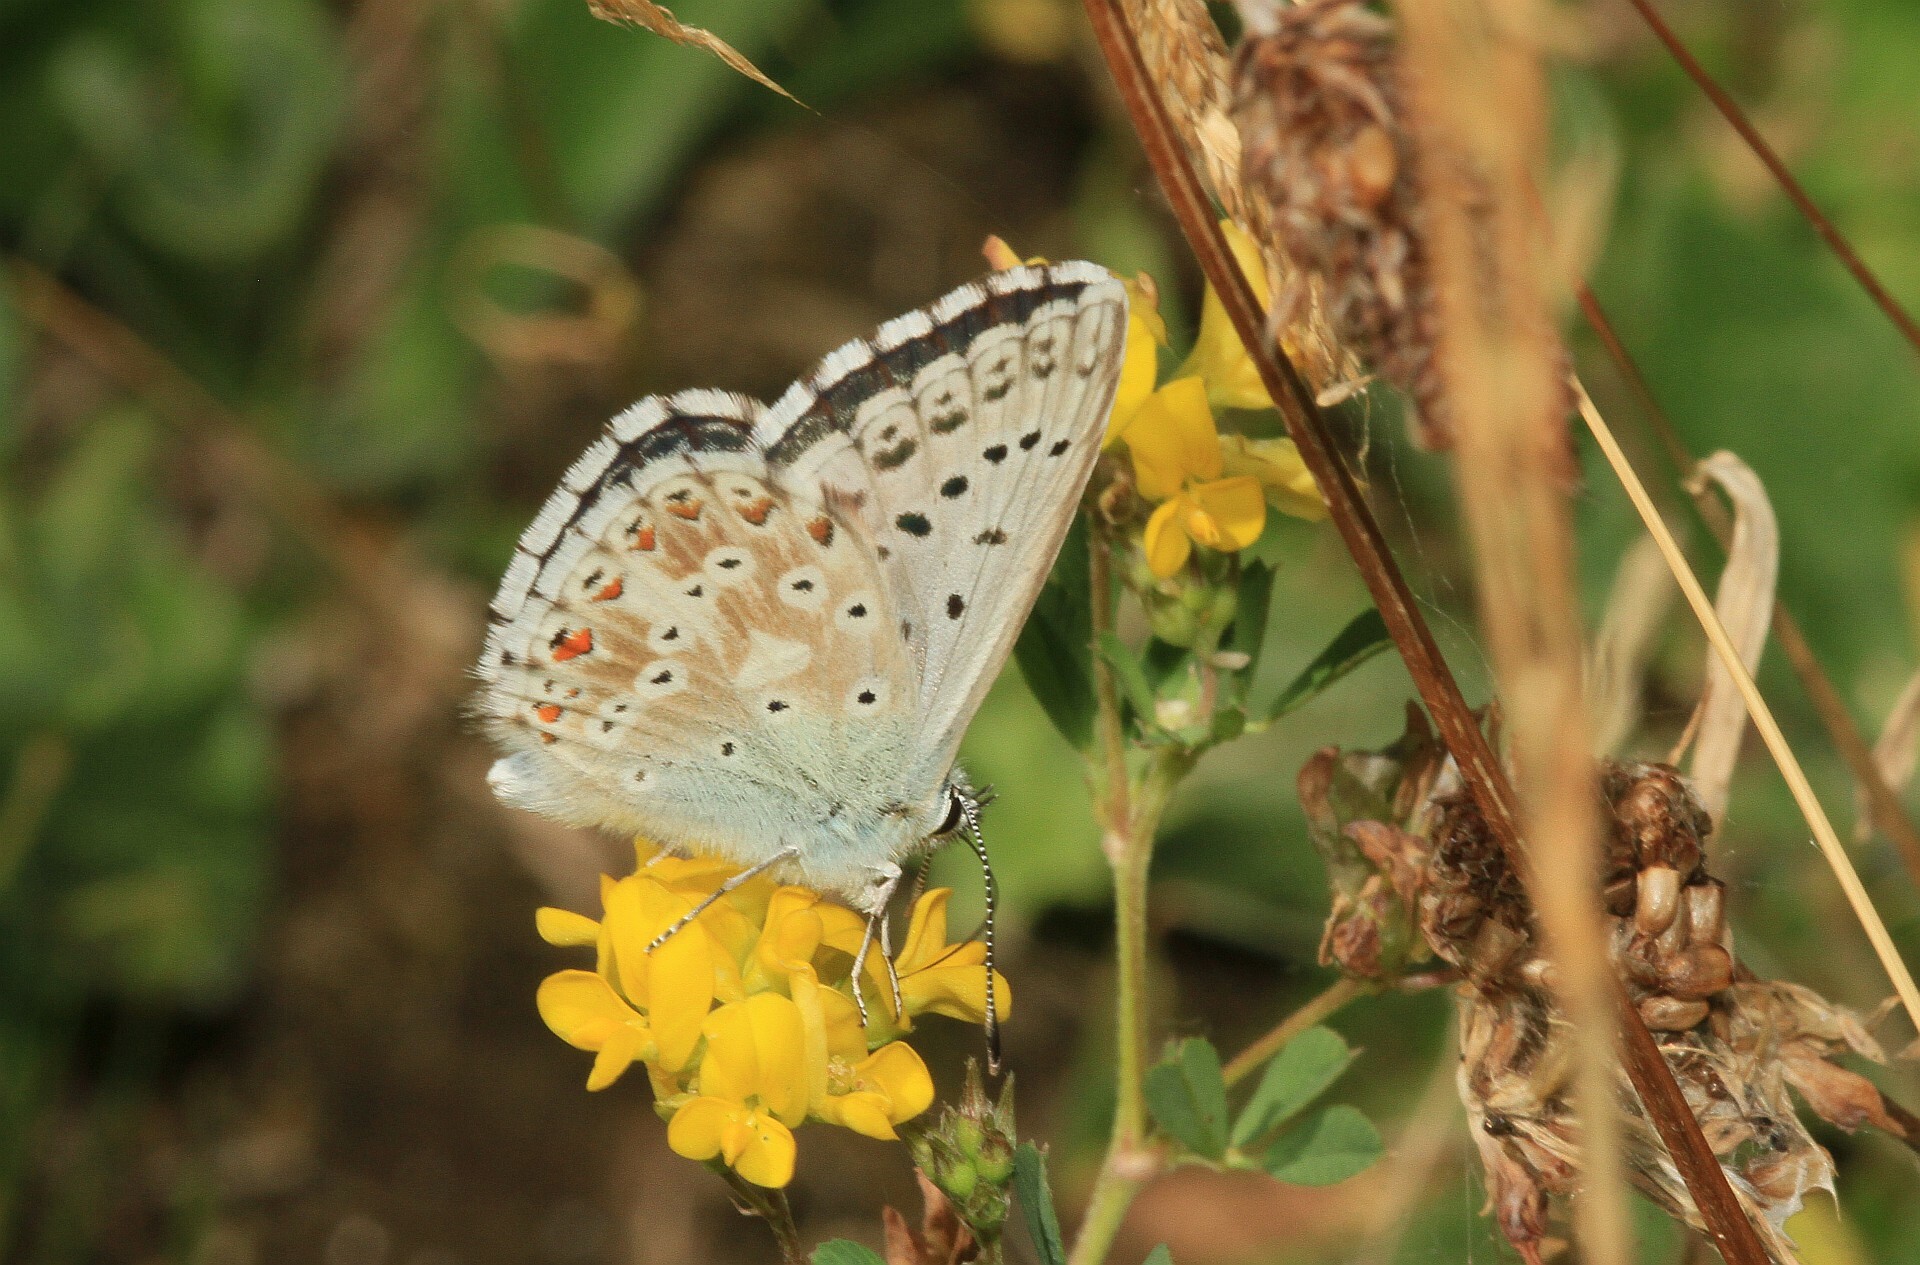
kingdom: Animalia
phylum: Arthropoda
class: Insecta
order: Lepidoptera
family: Lycaenidae
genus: Lysandra
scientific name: Lysandra coridon
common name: Chalkhill blue
